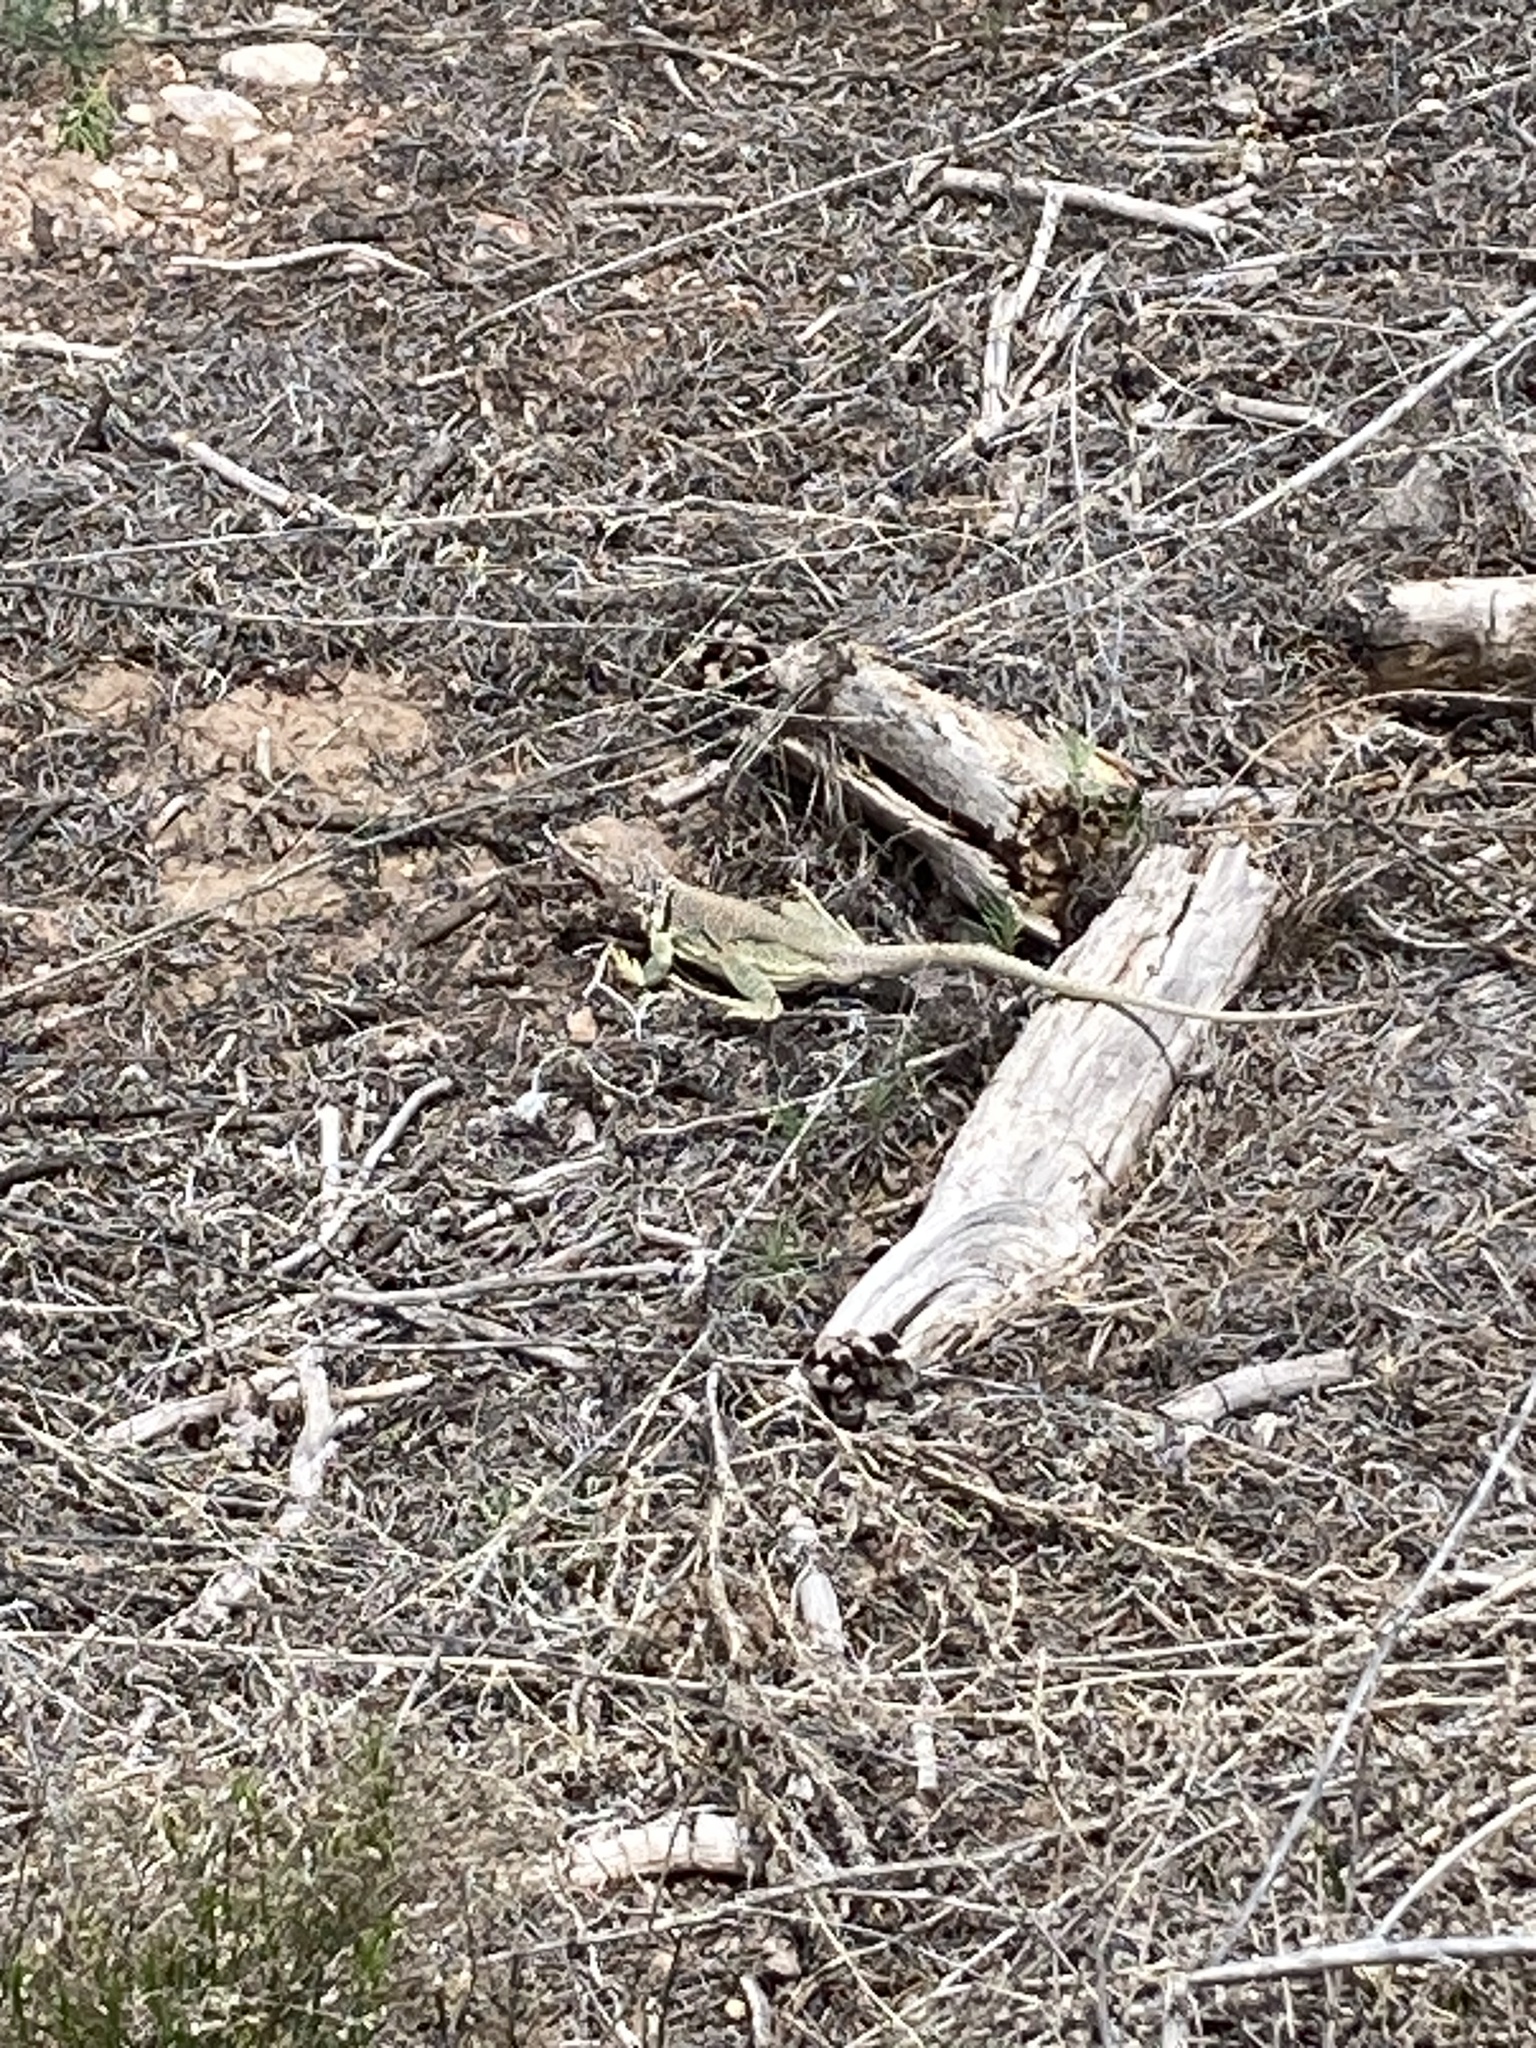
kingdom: Animalia
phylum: Chordata
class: Squamata
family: Crotaphytidae
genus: Crotaphytus
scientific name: Crotaphytus collaris
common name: Collared lizard
